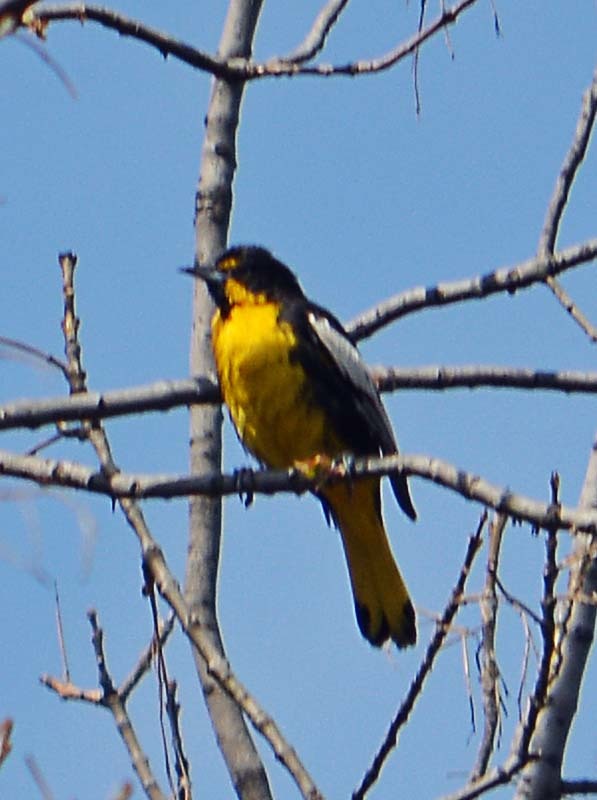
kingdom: Animalia
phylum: Chordata
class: Aves
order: Passeriformes
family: Icteridae
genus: Icterus
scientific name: Icterus abeillei
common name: Black-backed oriole
